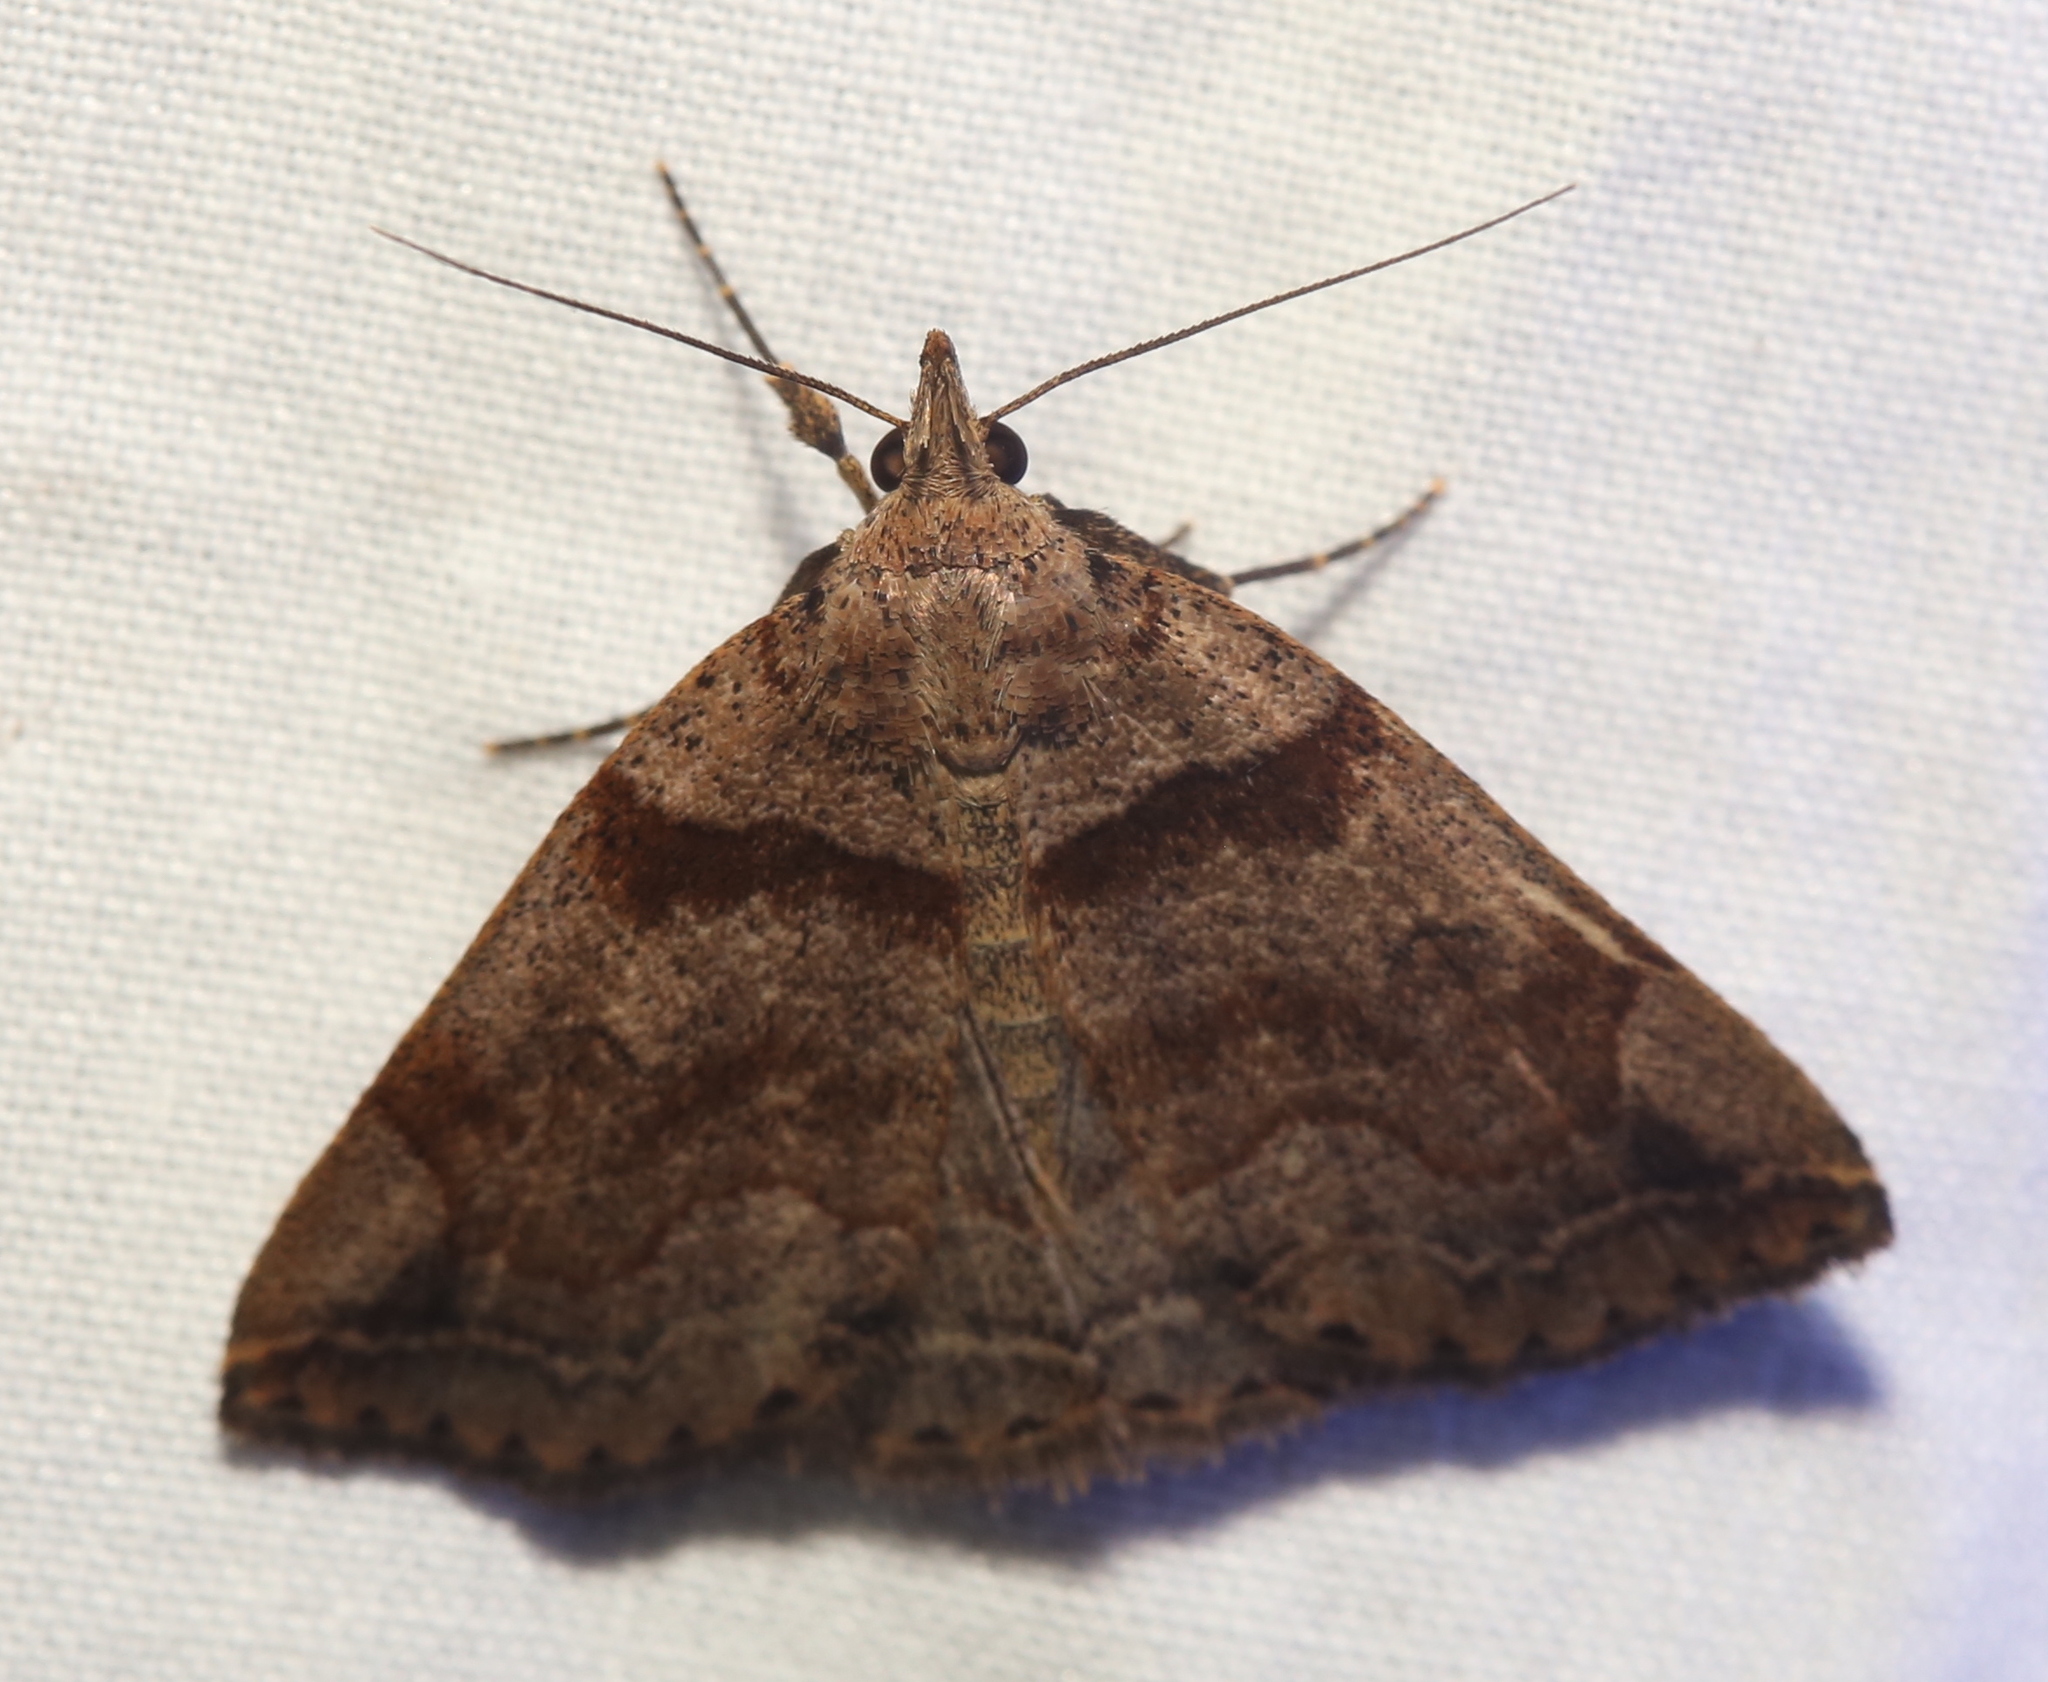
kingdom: Animalia
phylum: Arthropoda
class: Insecta
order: Lepidoptera
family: Erebidae
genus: Zanclognatha
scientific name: Zanclognatha laevigata
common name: Variable fan-foot
